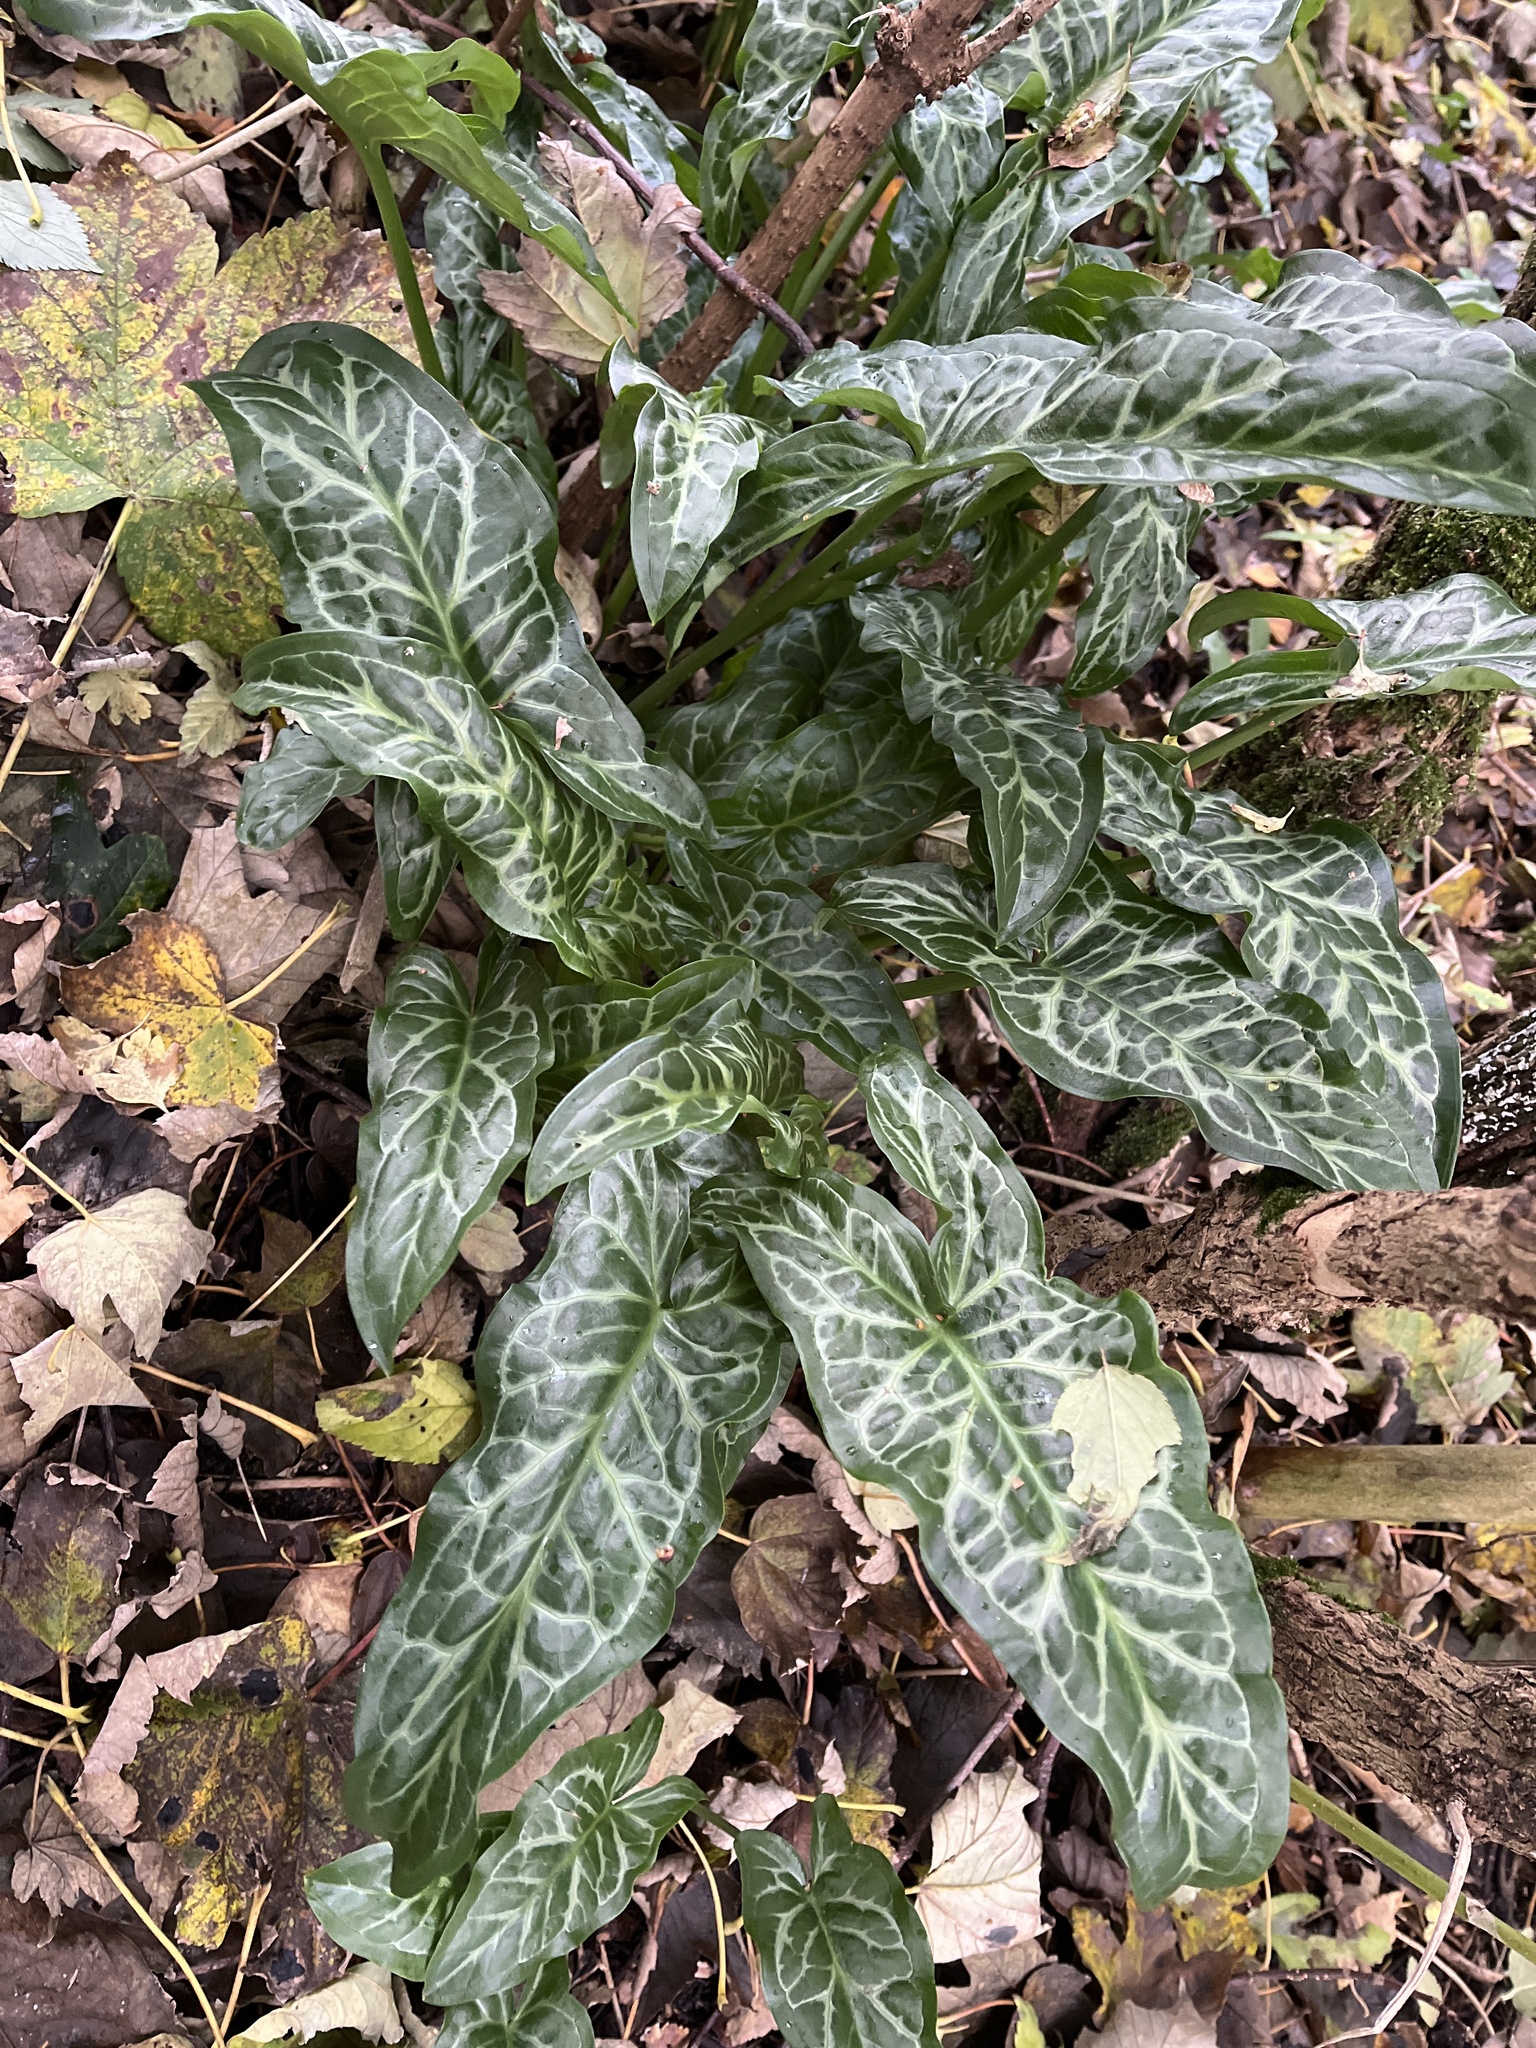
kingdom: Plantae
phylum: Tracheophyta
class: Liliopsida
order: Alismatales
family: Araceae
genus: Arum
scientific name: Arum italicum
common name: Italian lords-and-ladies
